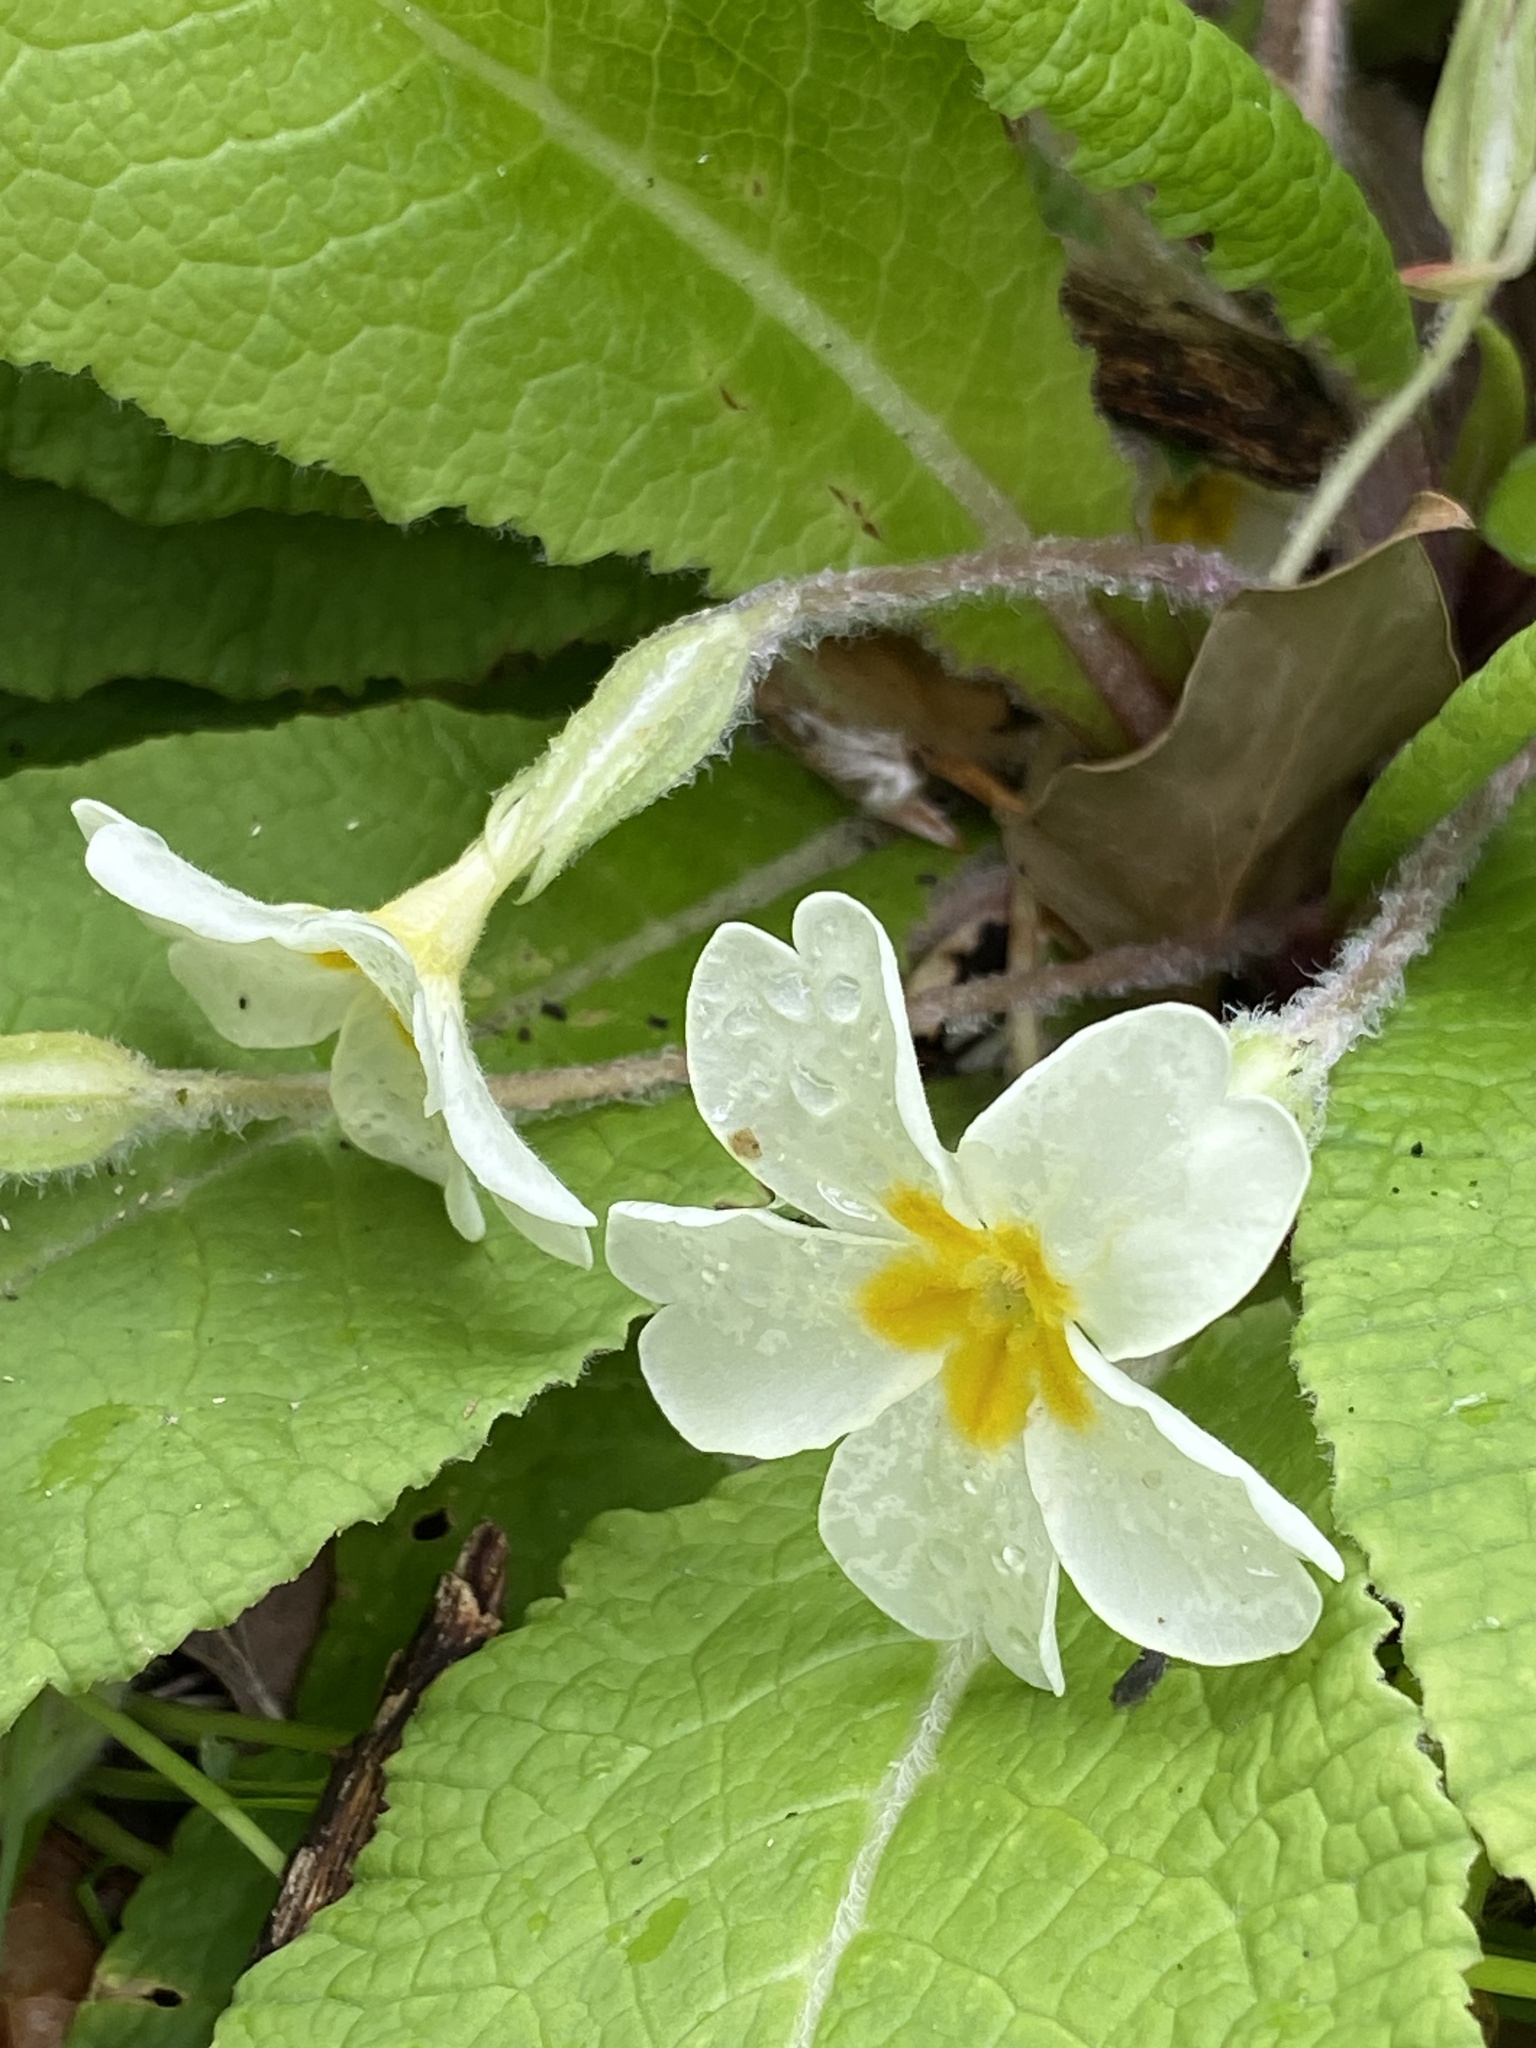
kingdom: Plantae
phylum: Tracheophyta
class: Magnoliopsida
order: Ericales
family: Primulaceae
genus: Primula
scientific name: Primula vulgaris
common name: Primrose
